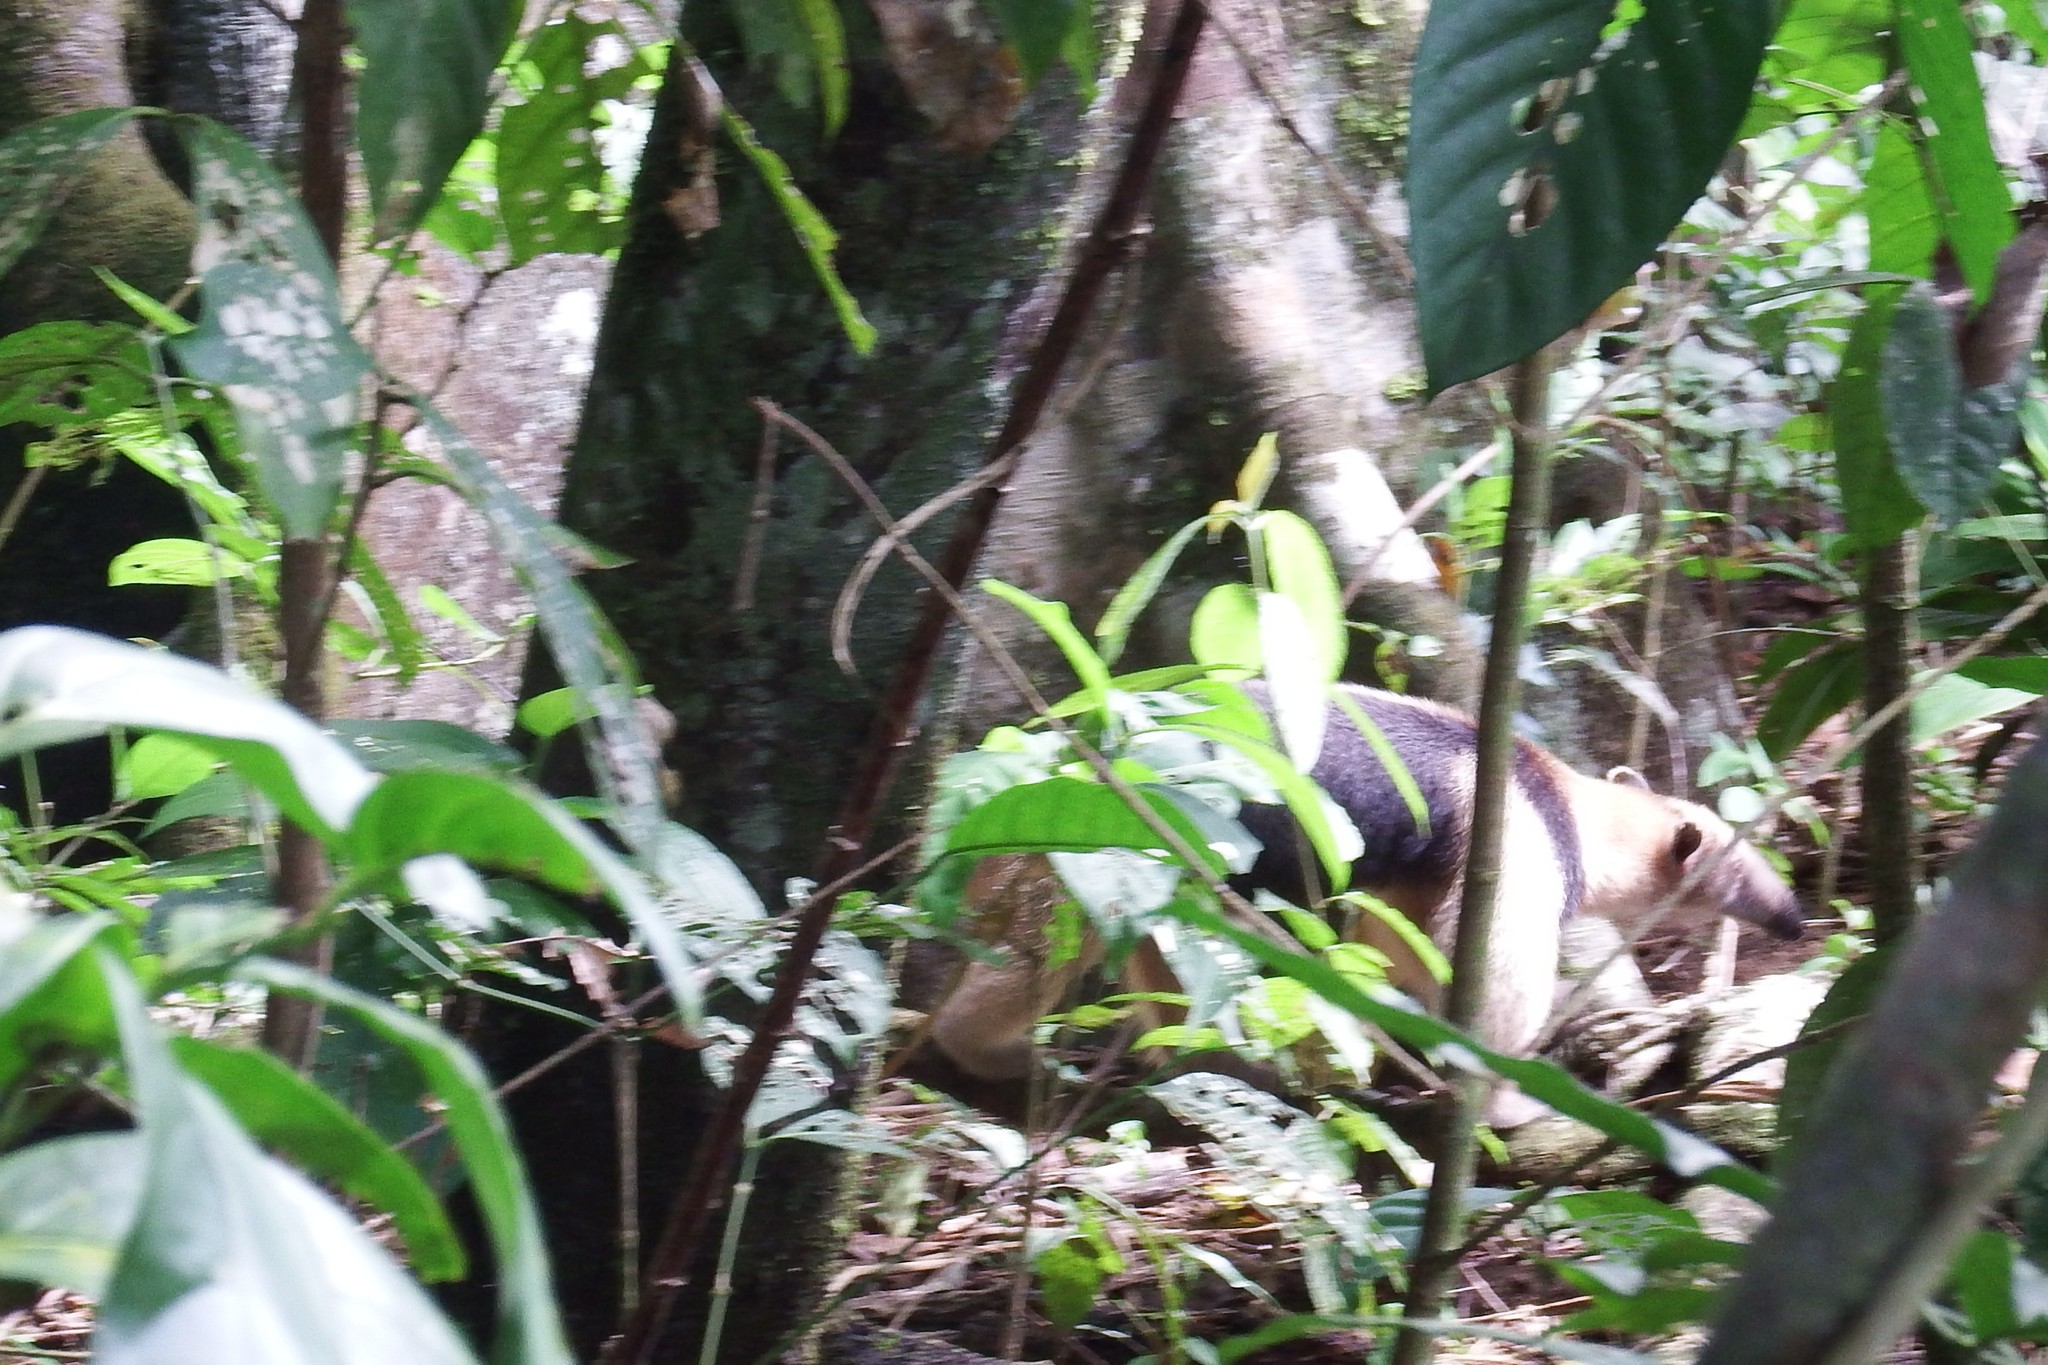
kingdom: Animalia
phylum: Chordata
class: Mammalia
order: Pilosa
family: Myrmecophagidae
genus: Tamandua
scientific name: Tamandua mexicana
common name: Northern tamandua
